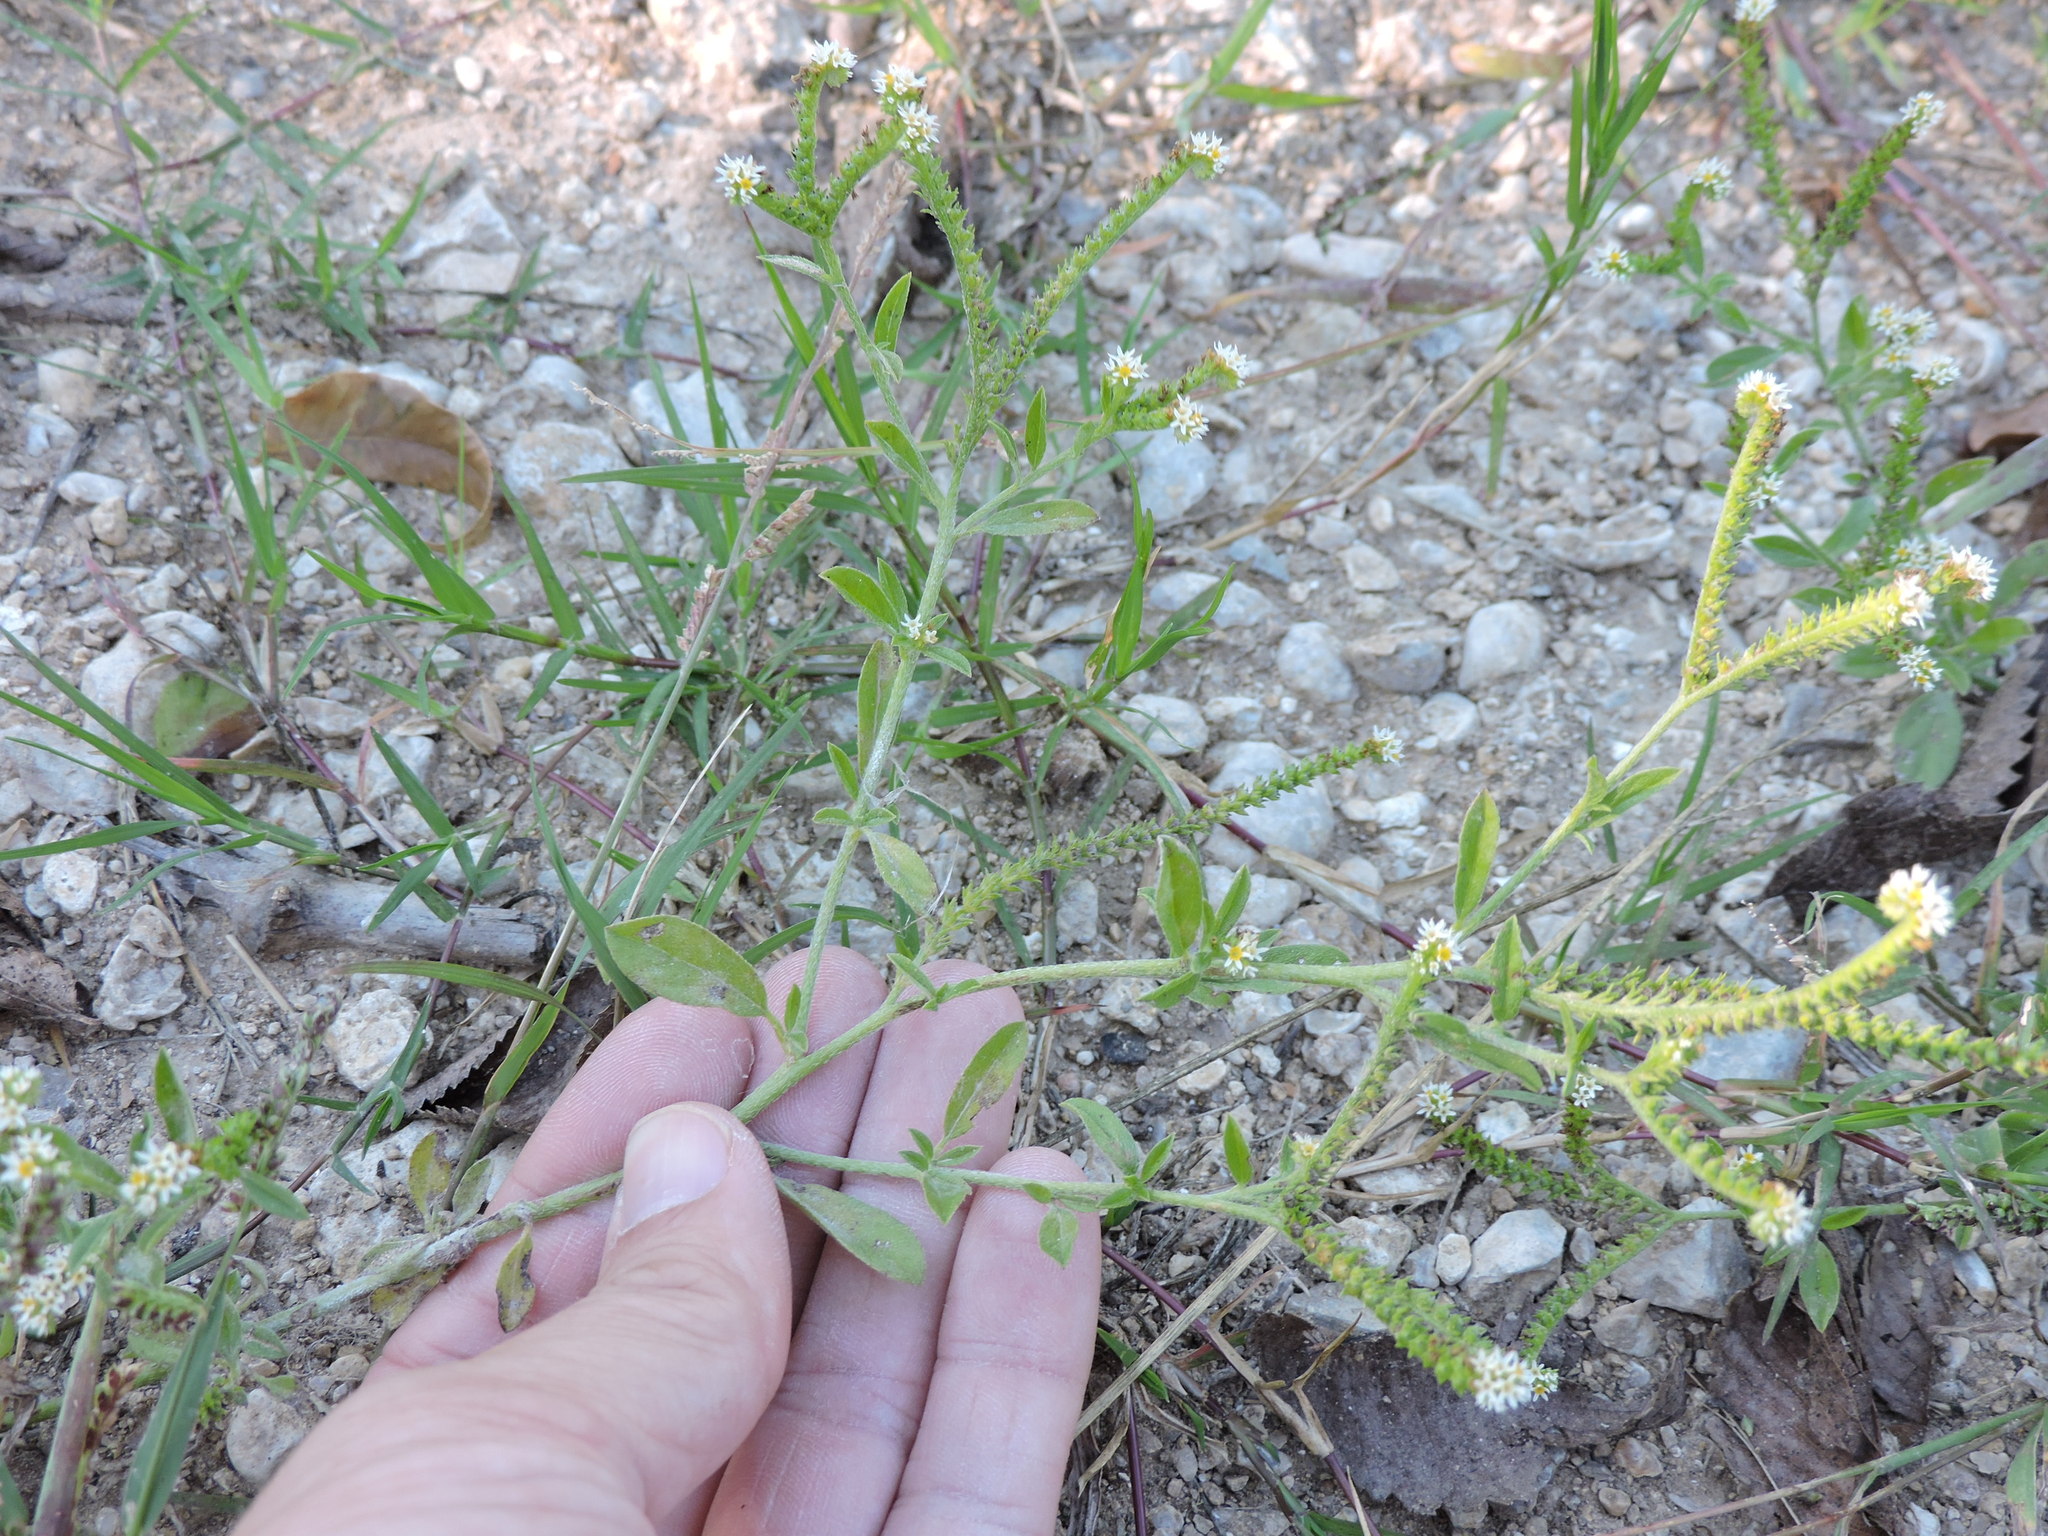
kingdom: Plantae
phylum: Tracheophyta
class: Magnoliopsida
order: Boraginales
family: Heliotropiaceae
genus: Euploca
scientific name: Euploca procumbens
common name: Fourspike heliotrope
